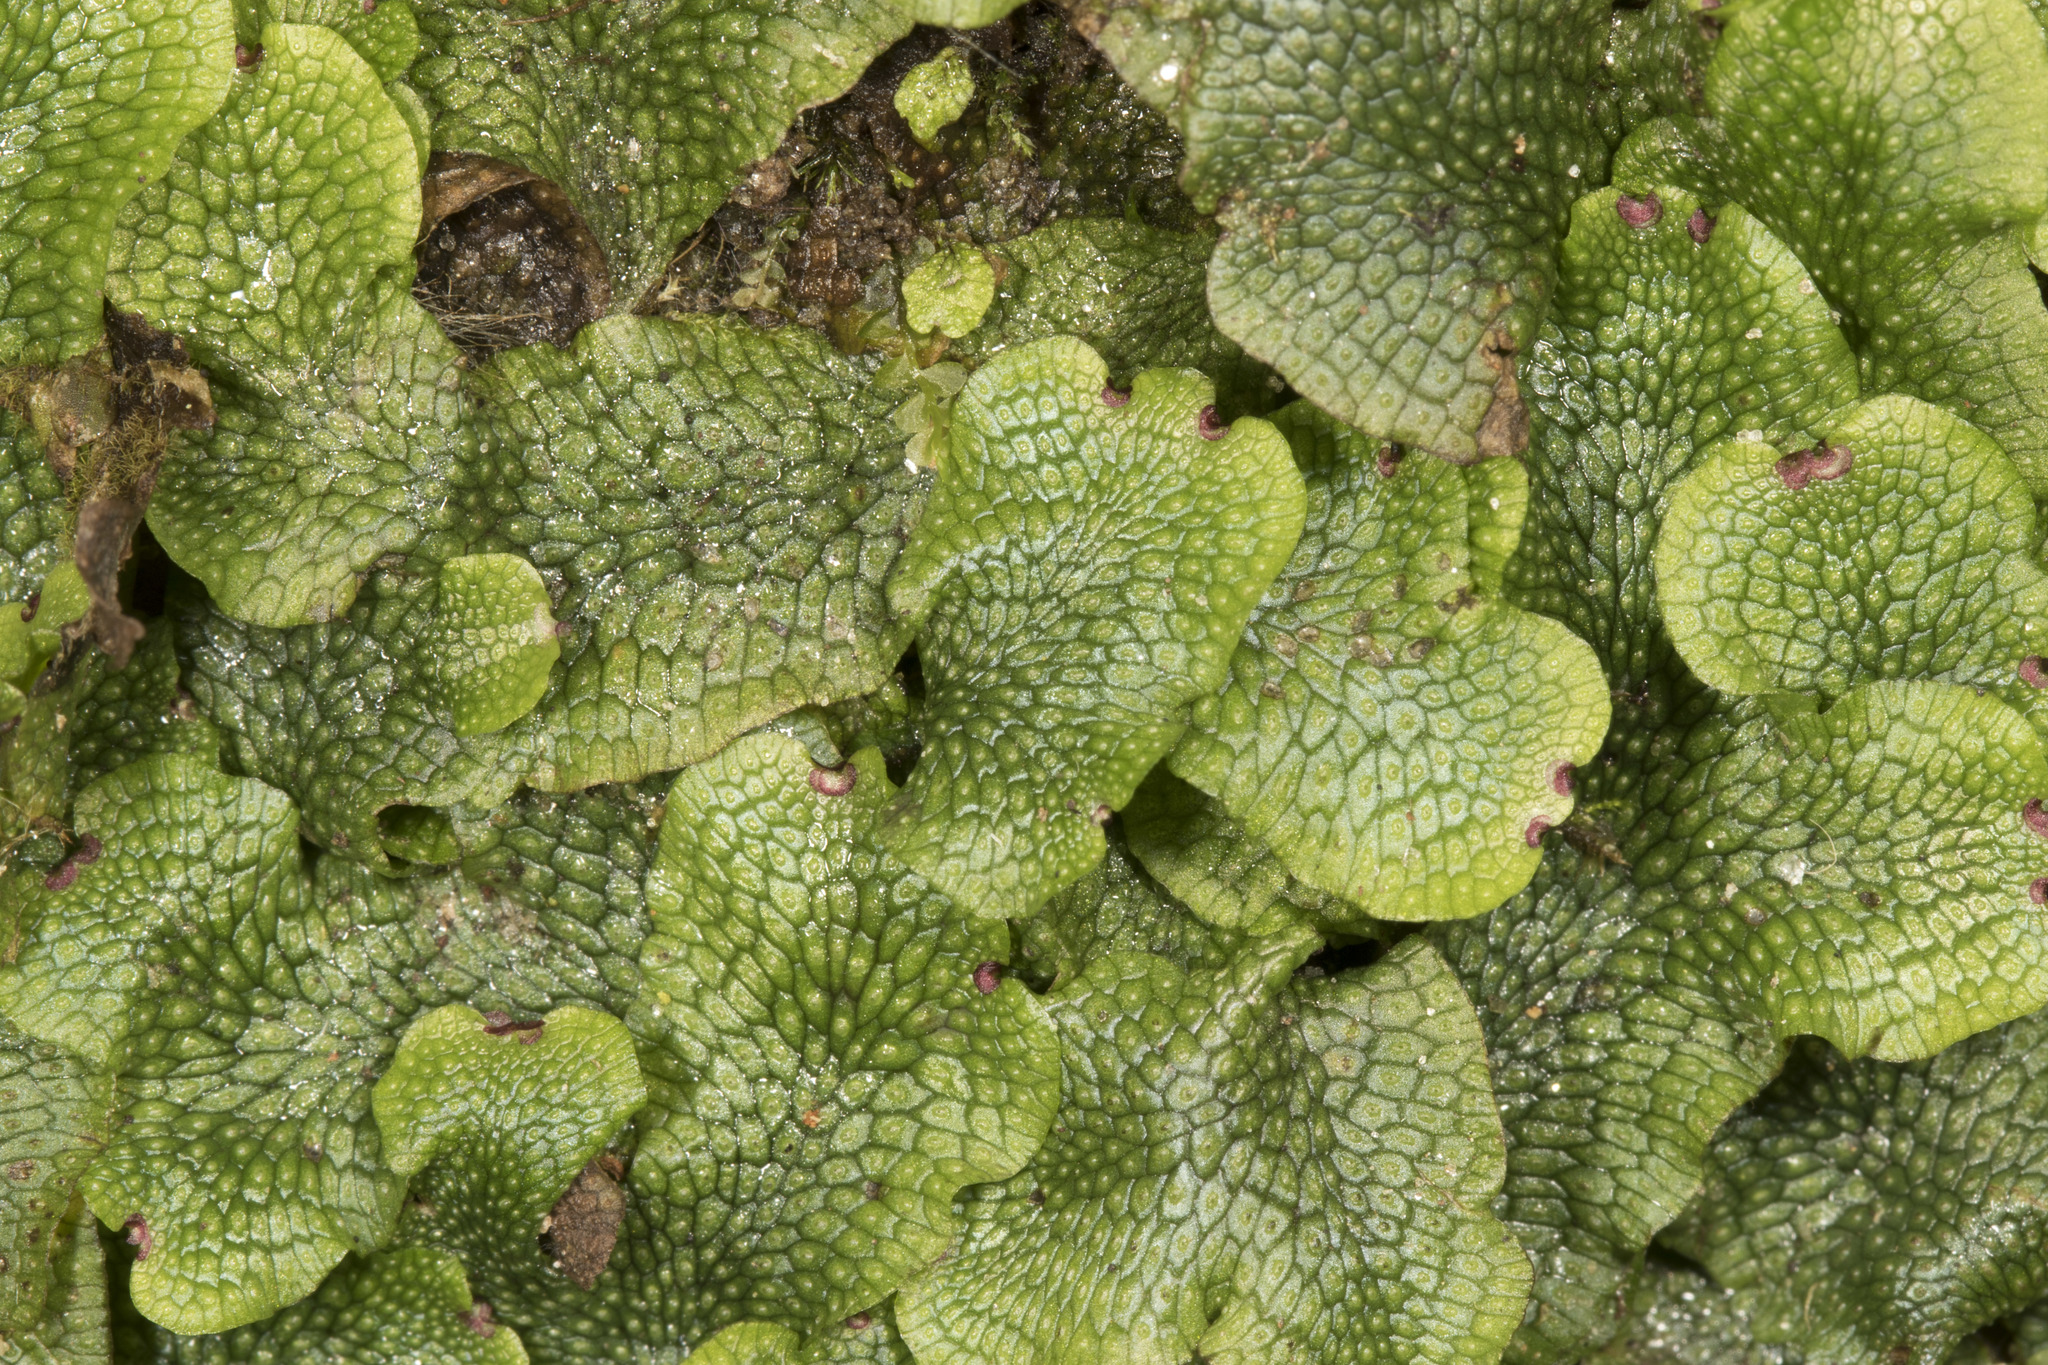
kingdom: Plantae
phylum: Marchantiophyta
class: Marchantiopsida
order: Marchantiales
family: Conocephalaceae
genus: Conocephalum
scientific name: Conocephalum salebrosum
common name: Cat-tongue liverwort
